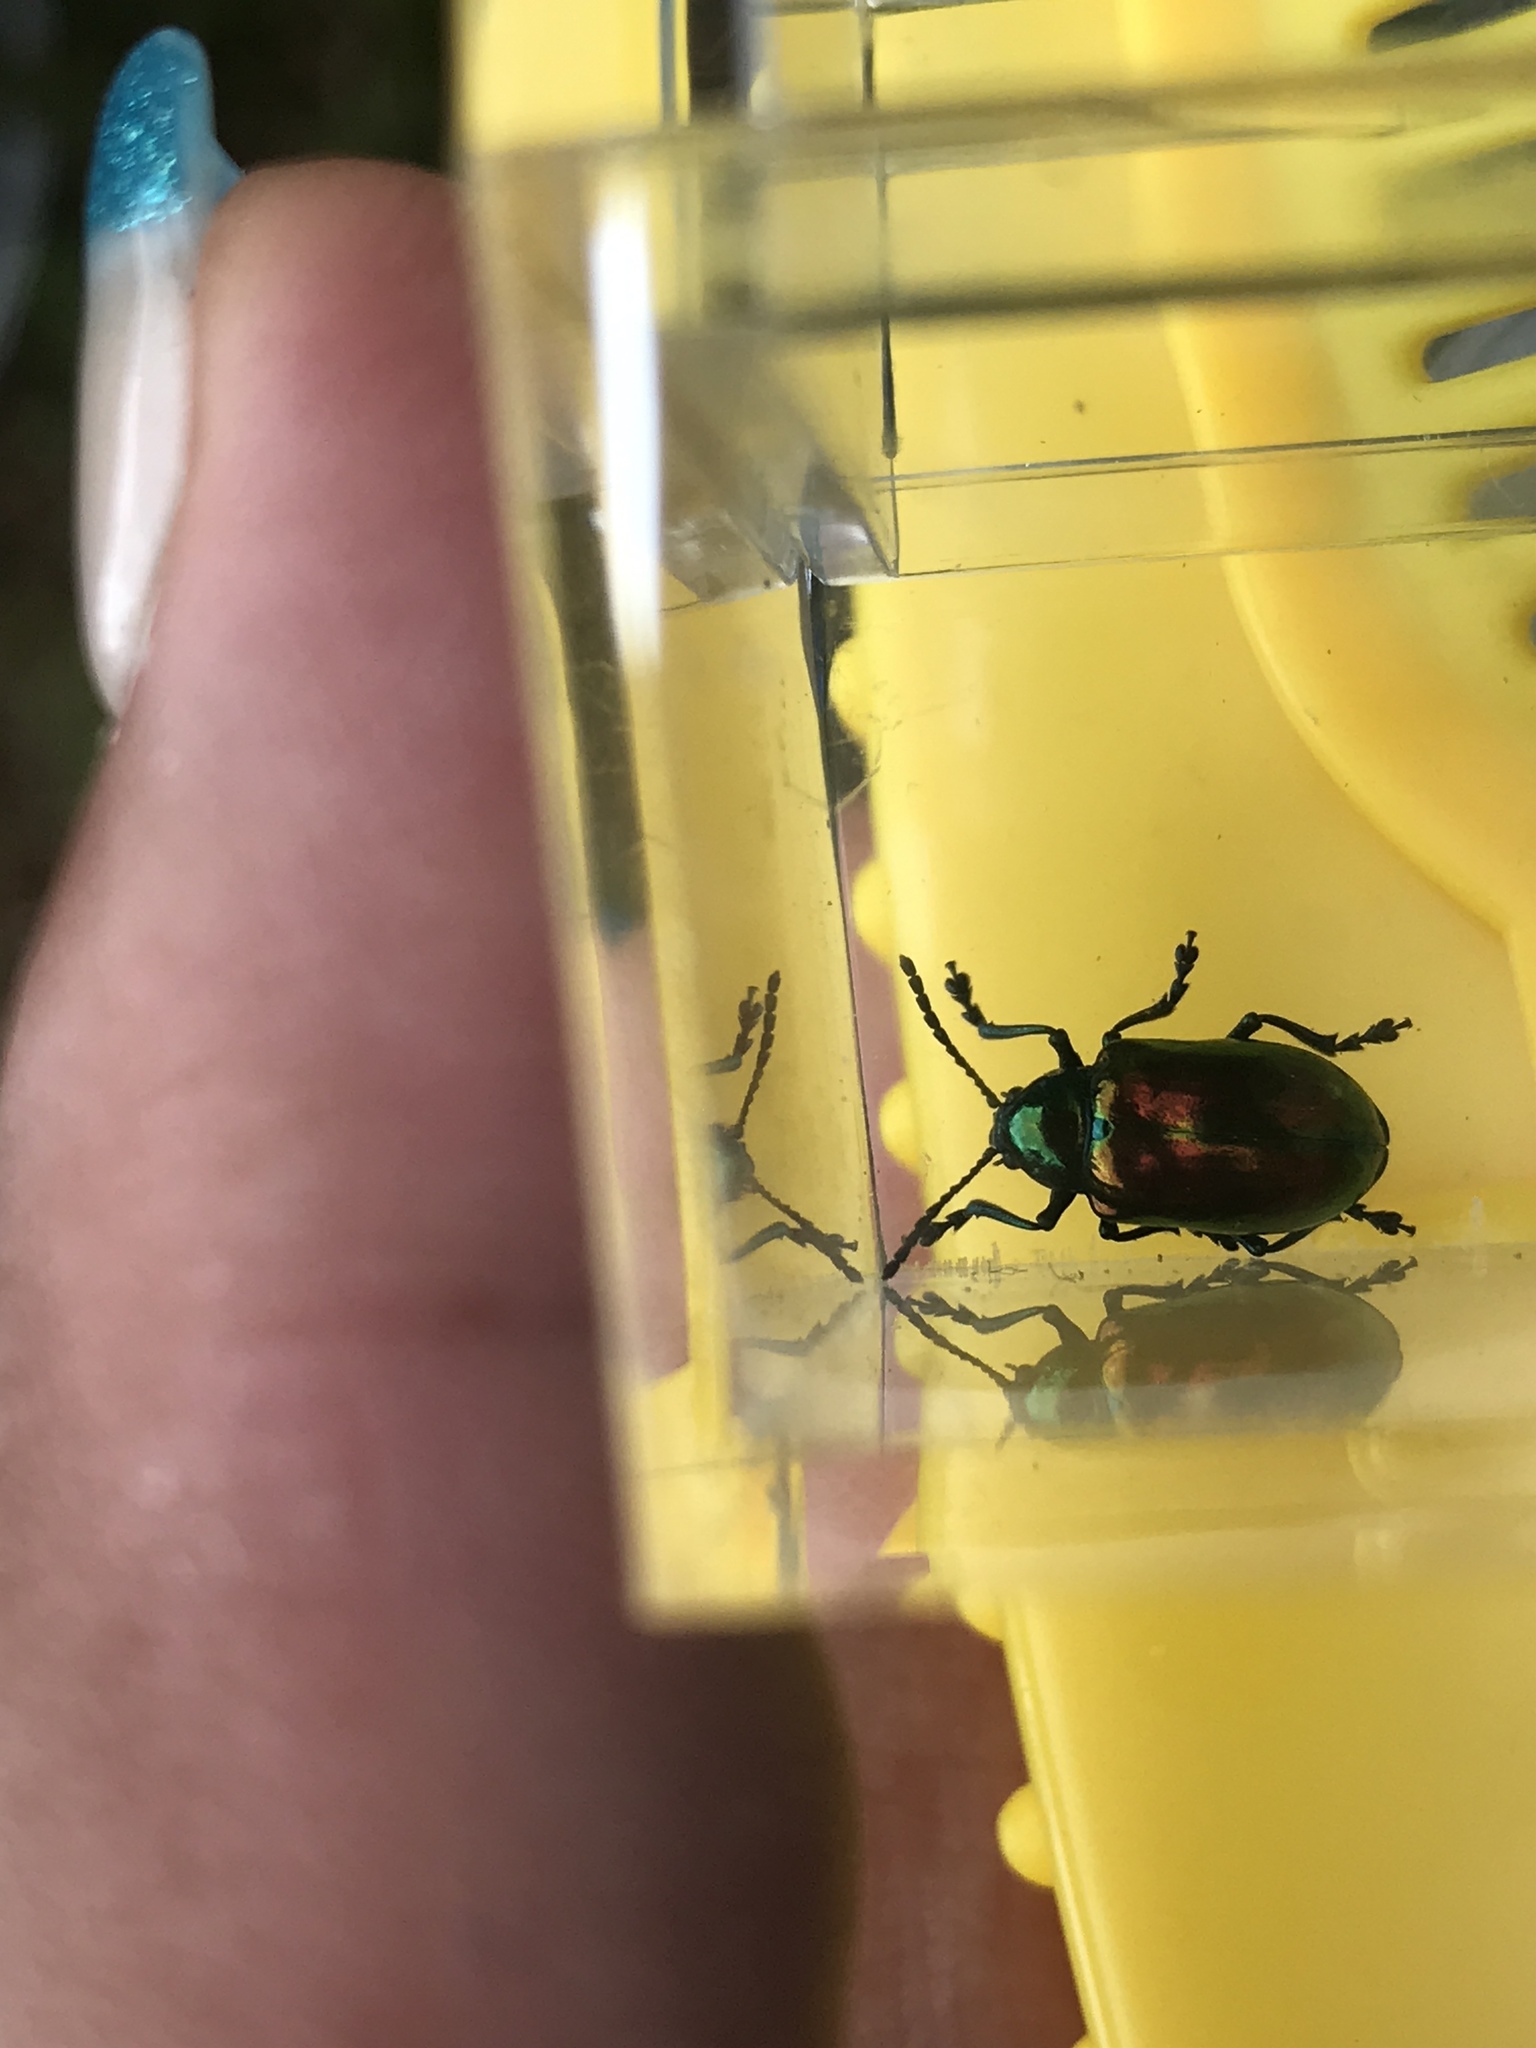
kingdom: Animalia
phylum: Arthropoda
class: Insecta
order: Coleoptera
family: Chrysomelidae
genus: Chrysochus
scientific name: Chrysochus auratus
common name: Dogbane leaf beetle
